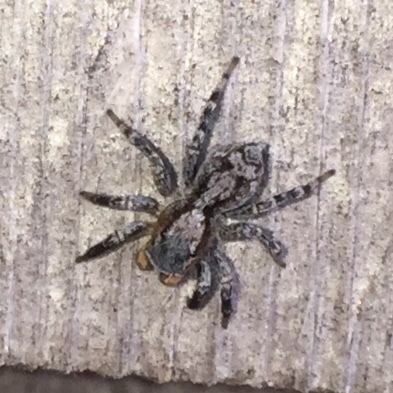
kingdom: Animalia
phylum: Arthropoda
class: Arachnida
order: Araneae
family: Salticidae
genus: Naphrys
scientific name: Naphrys pulex
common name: Flea jumping spider
